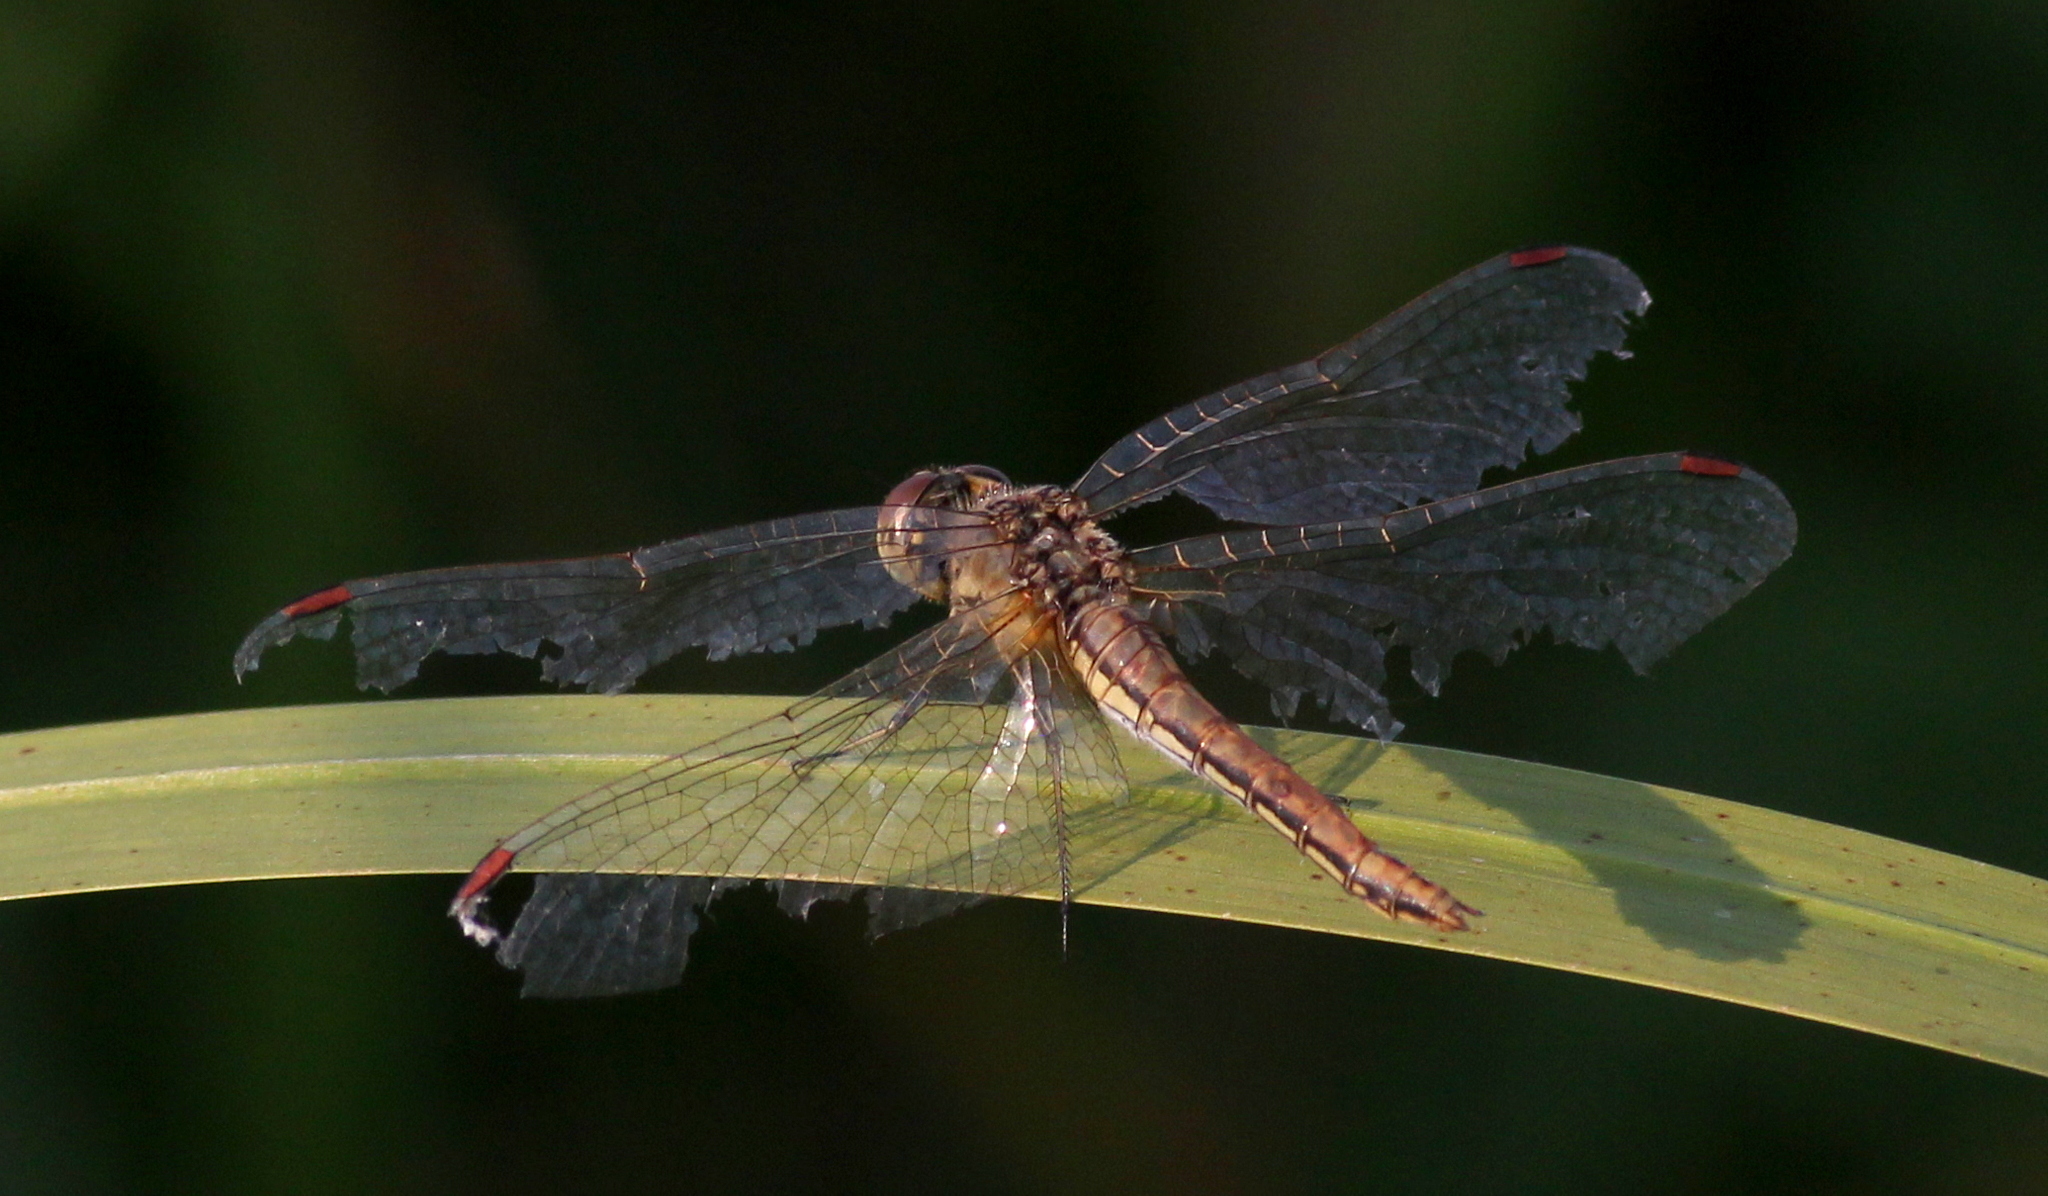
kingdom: Animalia
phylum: Arthropoda
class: Insecta
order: Odonata
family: Libellulidae
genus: Sympetrum
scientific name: Sympetrum flaveolum
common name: Yellow-winged darter
